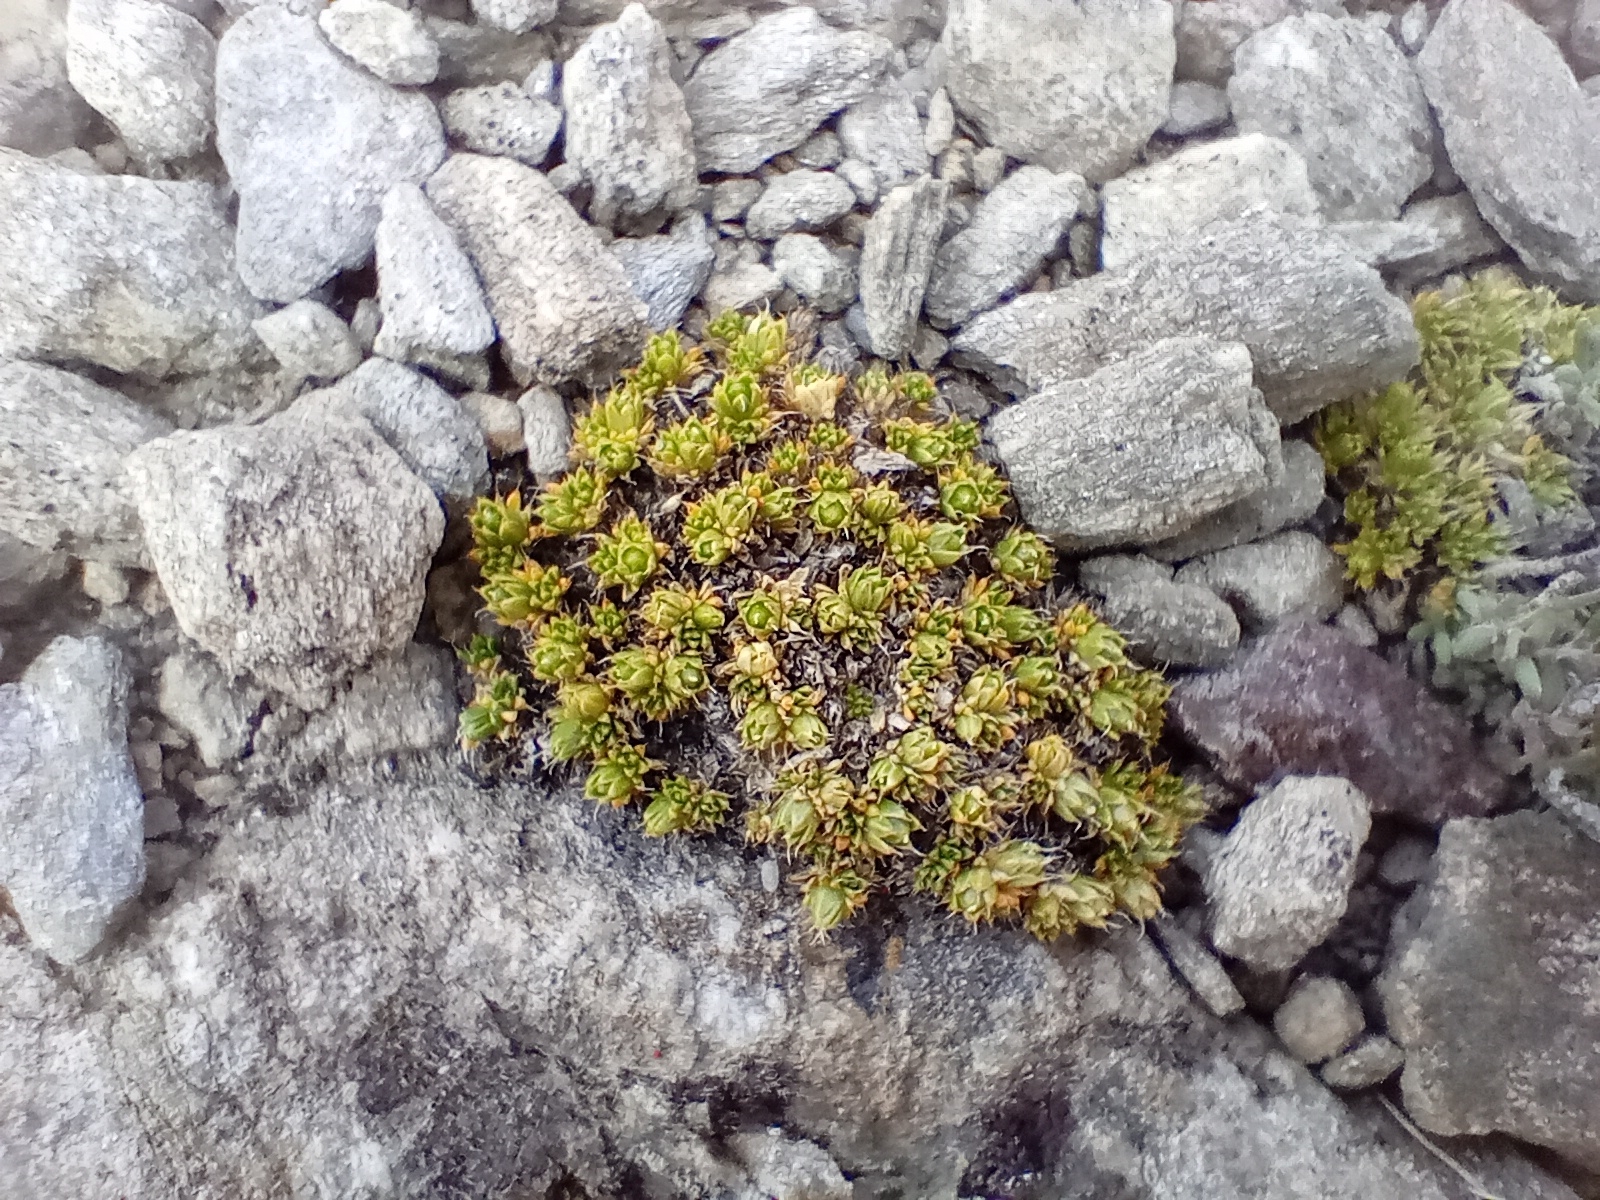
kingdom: Plantae
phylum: Tracheophyta
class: Magnoliopsida
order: Caryophyllales
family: Caryophyllaceae
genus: Colobanthus
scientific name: Colobanthus brevisepalus
